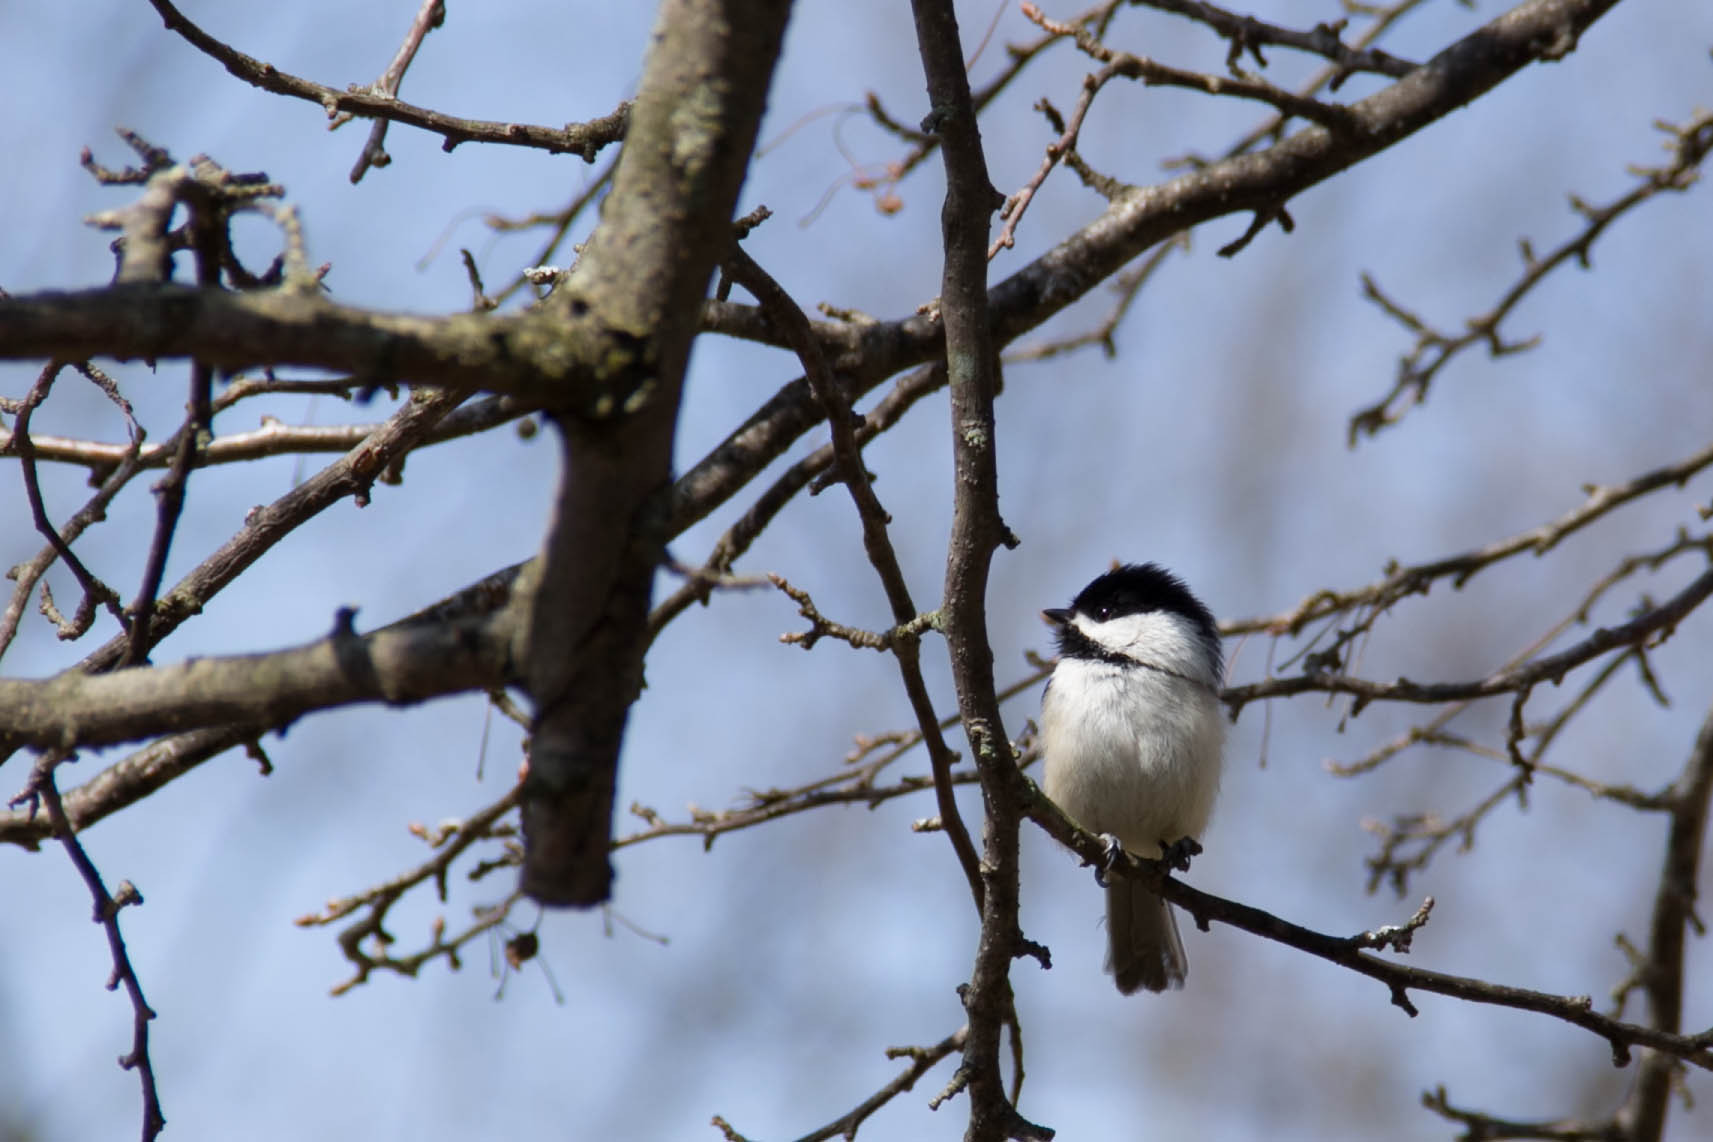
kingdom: Animalia
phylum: Chordata
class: Aves
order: Passeriformes
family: Paridae
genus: Poecile
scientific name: Poecile atricapillus
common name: Black-capped chickadee
